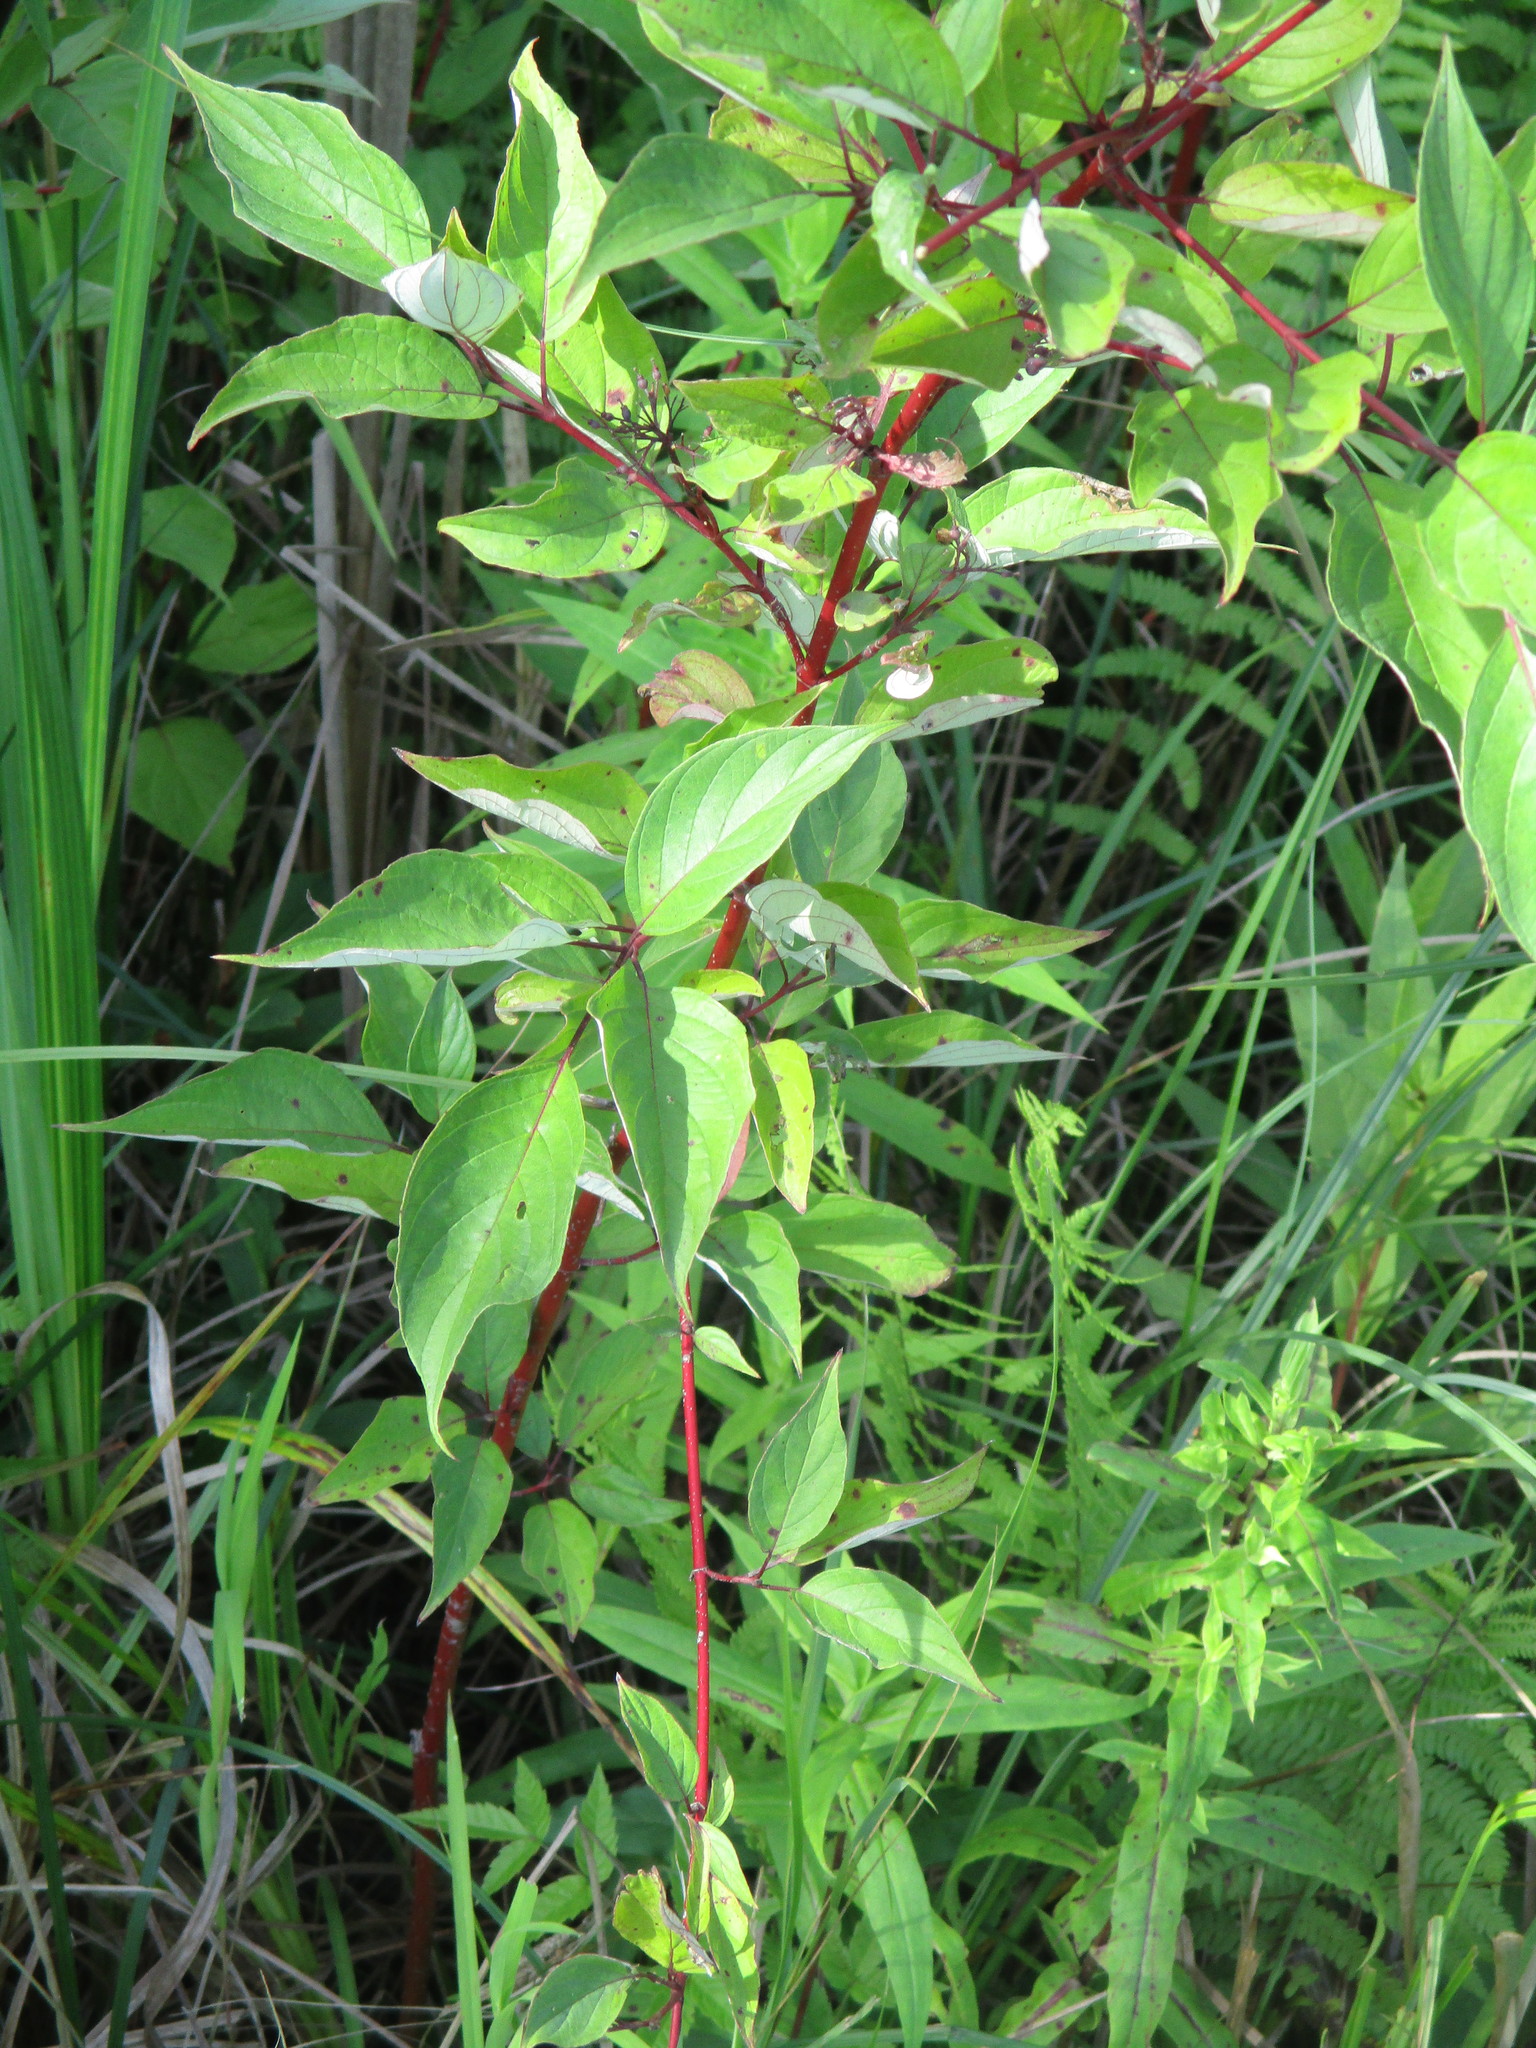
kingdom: Plantae
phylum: Tracheophyta
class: Magnoliopsida
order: Cornales
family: Cornaceae
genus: Cornus
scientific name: Cornus sericea
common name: Red-osier dogwood
